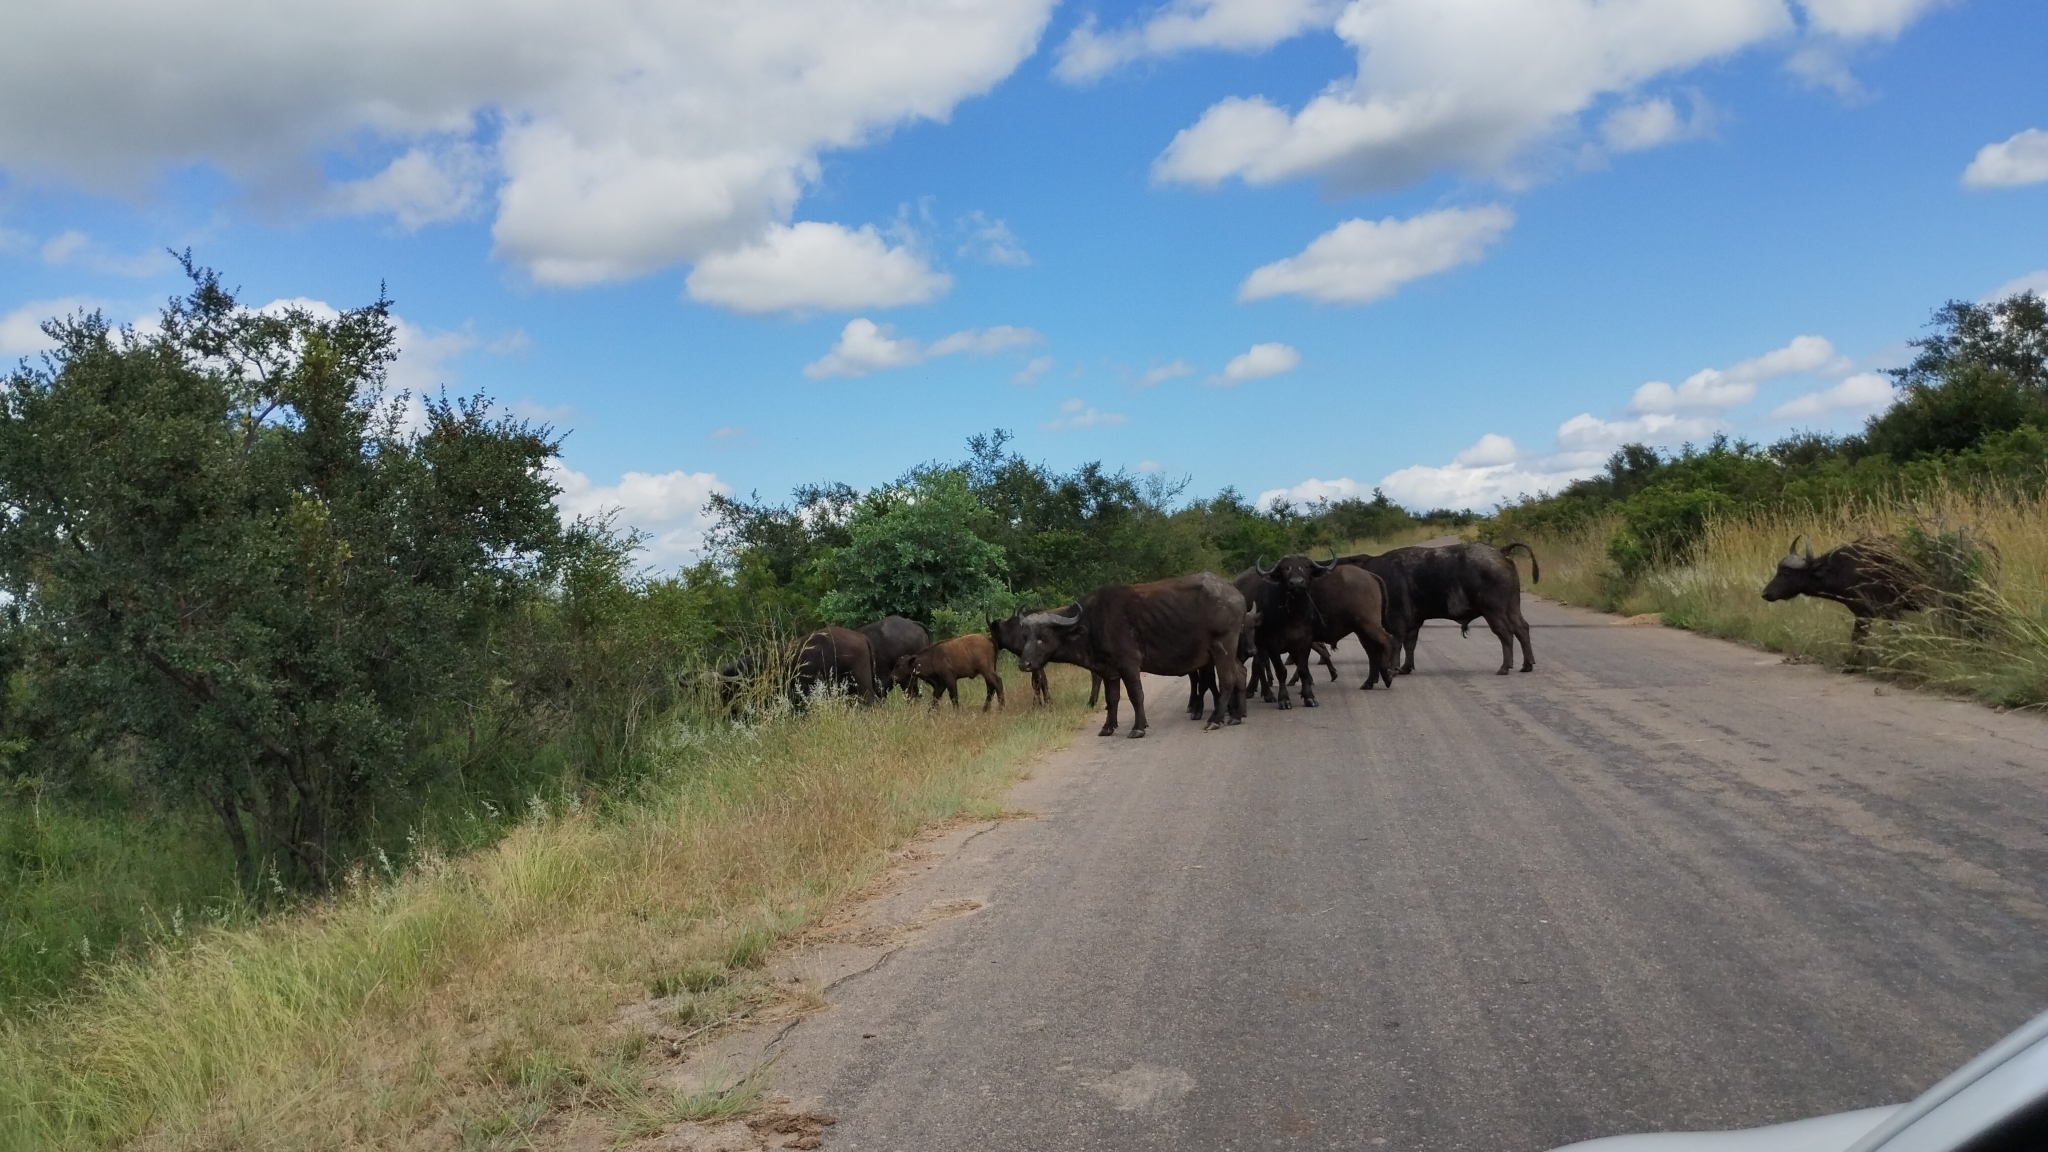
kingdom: Animalia
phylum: Chordata
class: Mammalia
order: Artiodactyla
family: Bovidae
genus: Syncerus
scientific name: Syncerus caffer
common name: African buffalo
